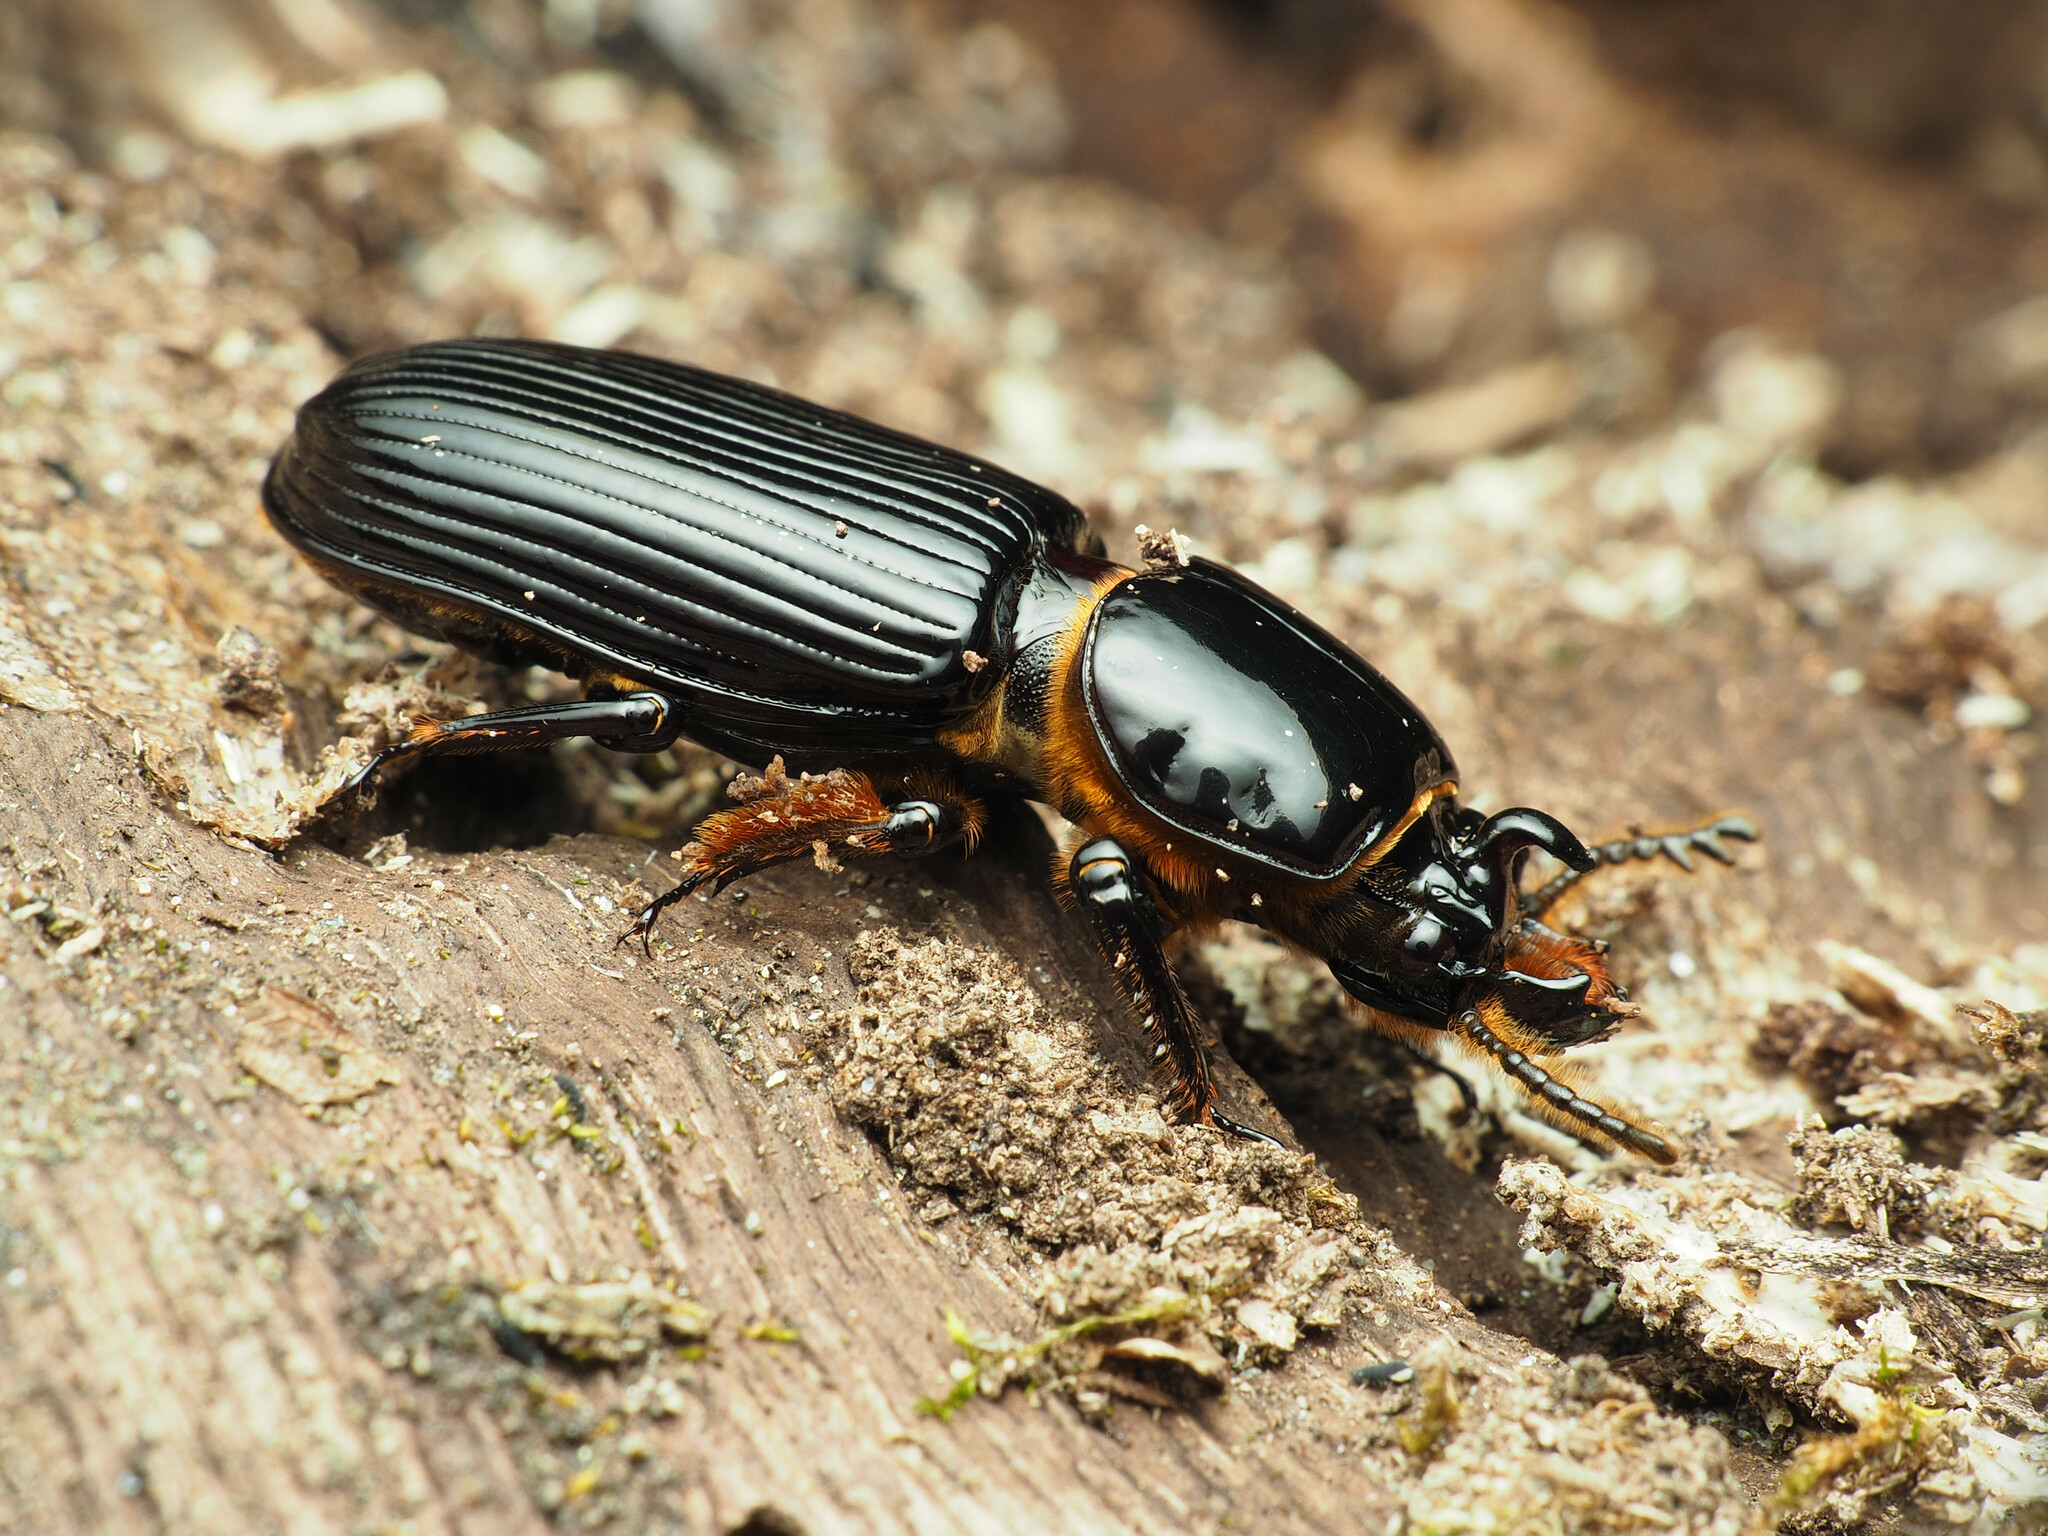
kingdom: Animalia
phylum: Arthropoda
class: Insecta
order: Coleoptera
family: Passalidae
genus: Odontotaenius
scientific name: Odontotaenius disjunctus
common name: Patent leather beetle
